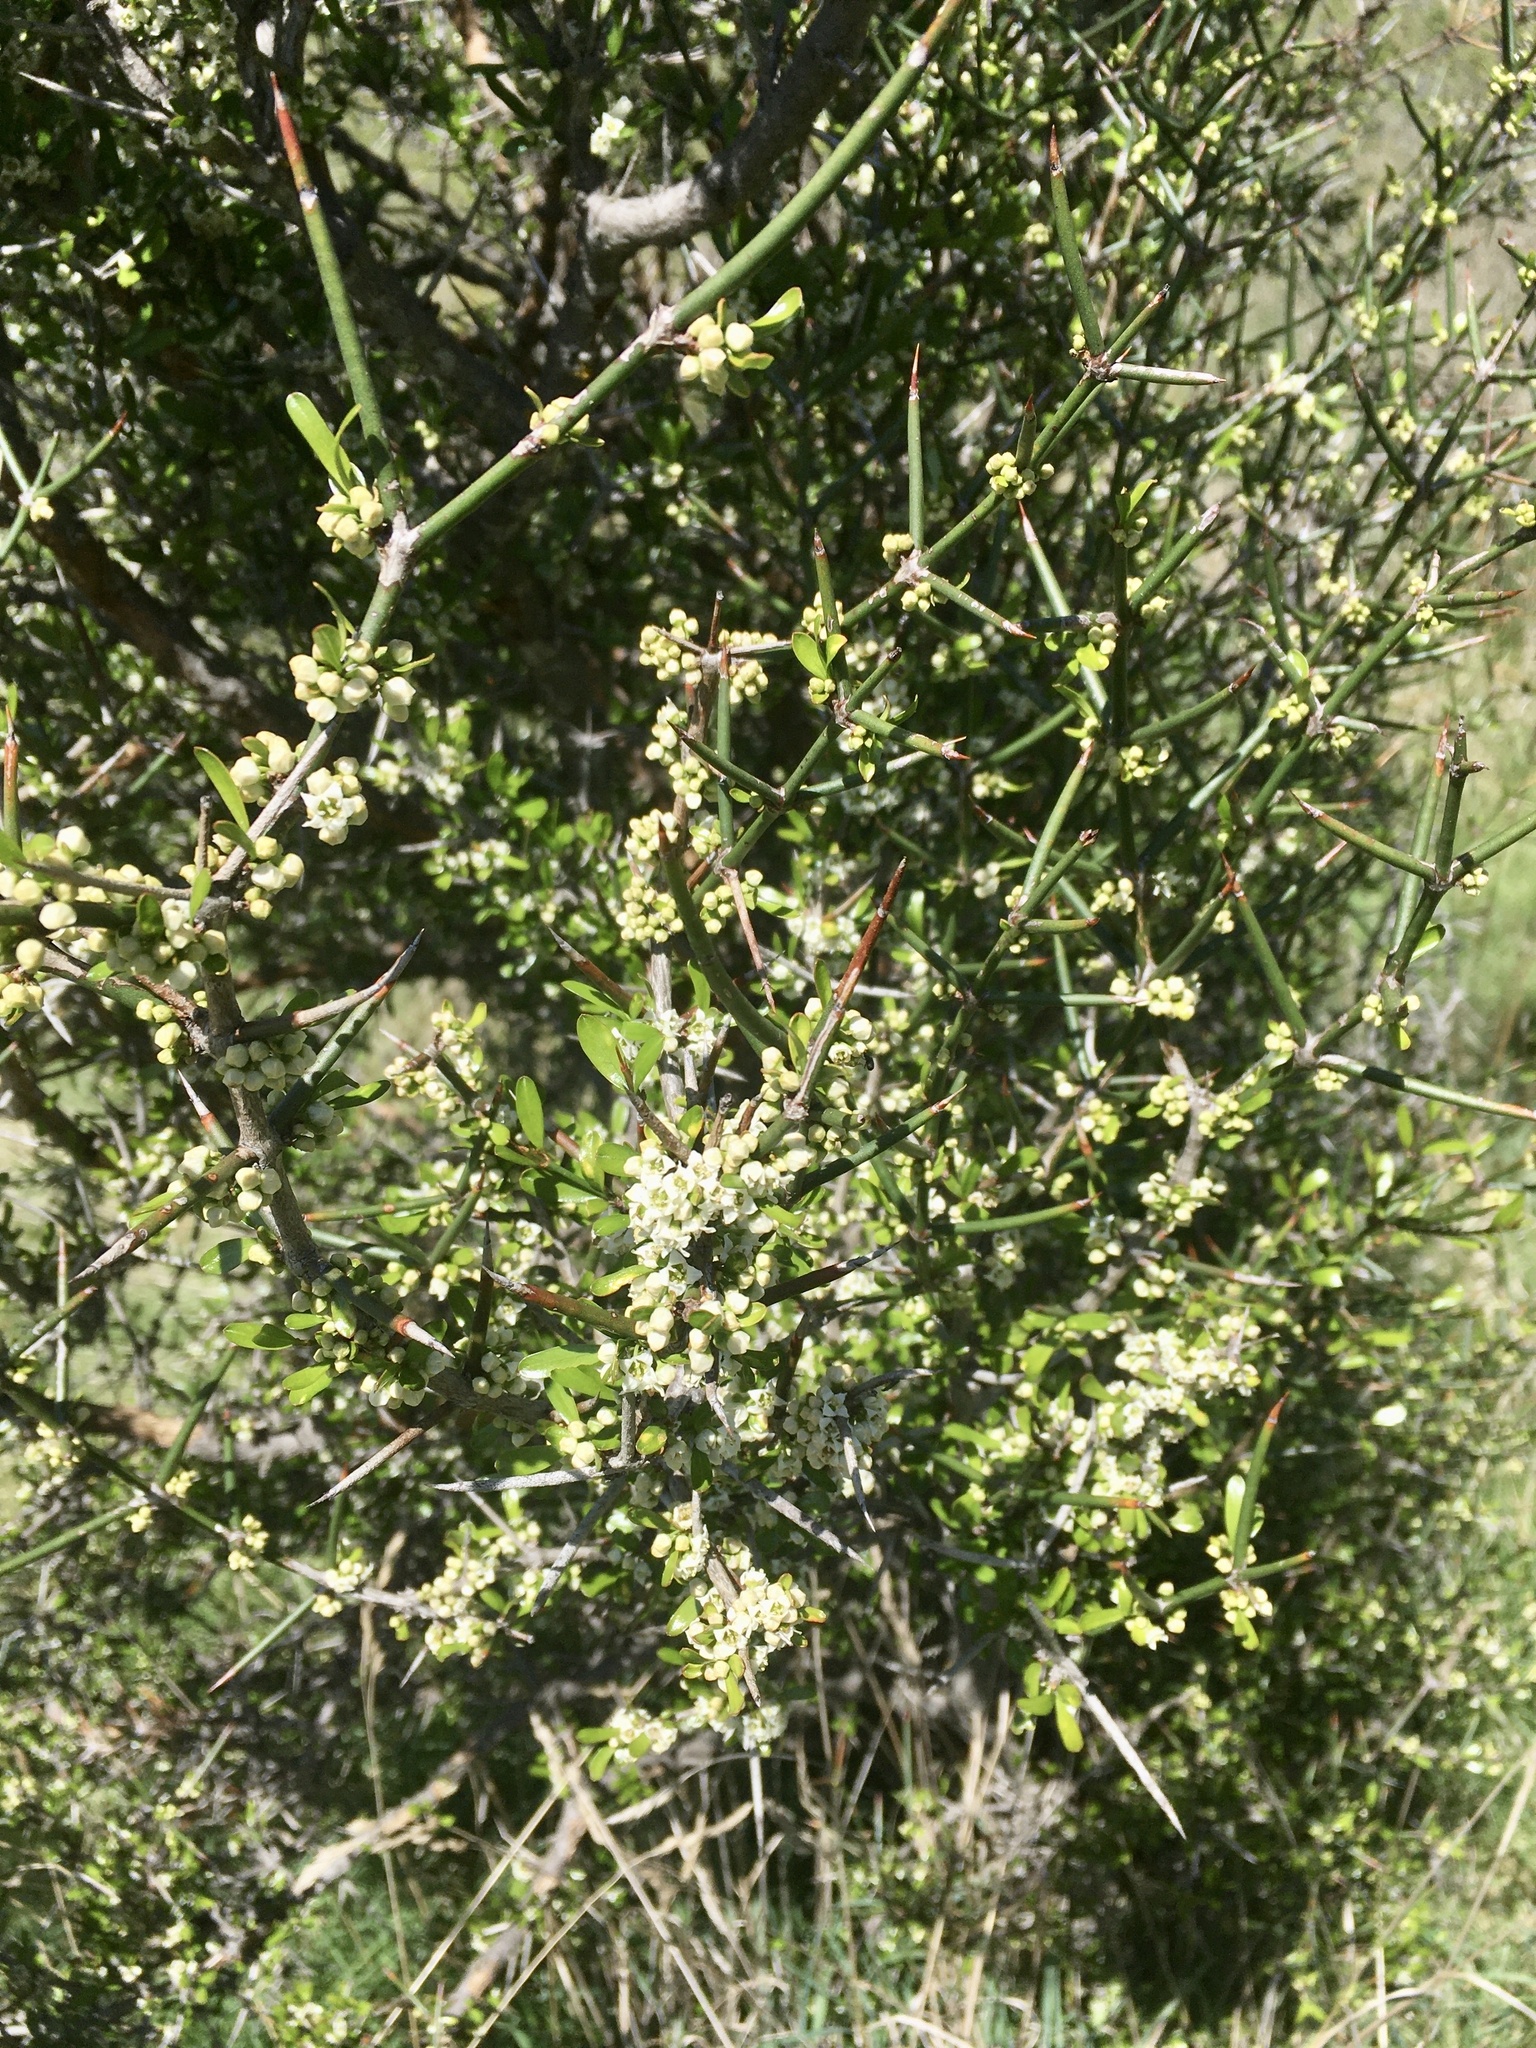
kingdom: Plantae
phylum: Tracheophyta
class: Magnoliopsida
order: Rosales
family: Rhamnaceae
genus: Discaria
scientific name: Discaria toumatou
